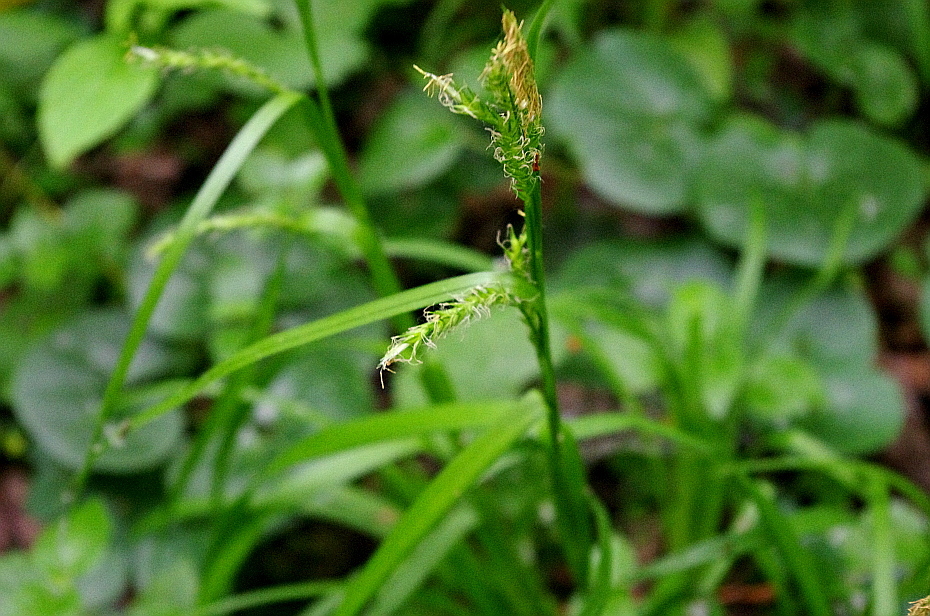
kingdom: Plantae
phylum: Tracheophyta
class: Liliopsida
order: Poales
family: Cyperaceae
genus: Carex
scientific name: Carex sylvatica
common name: Wood-sedge
